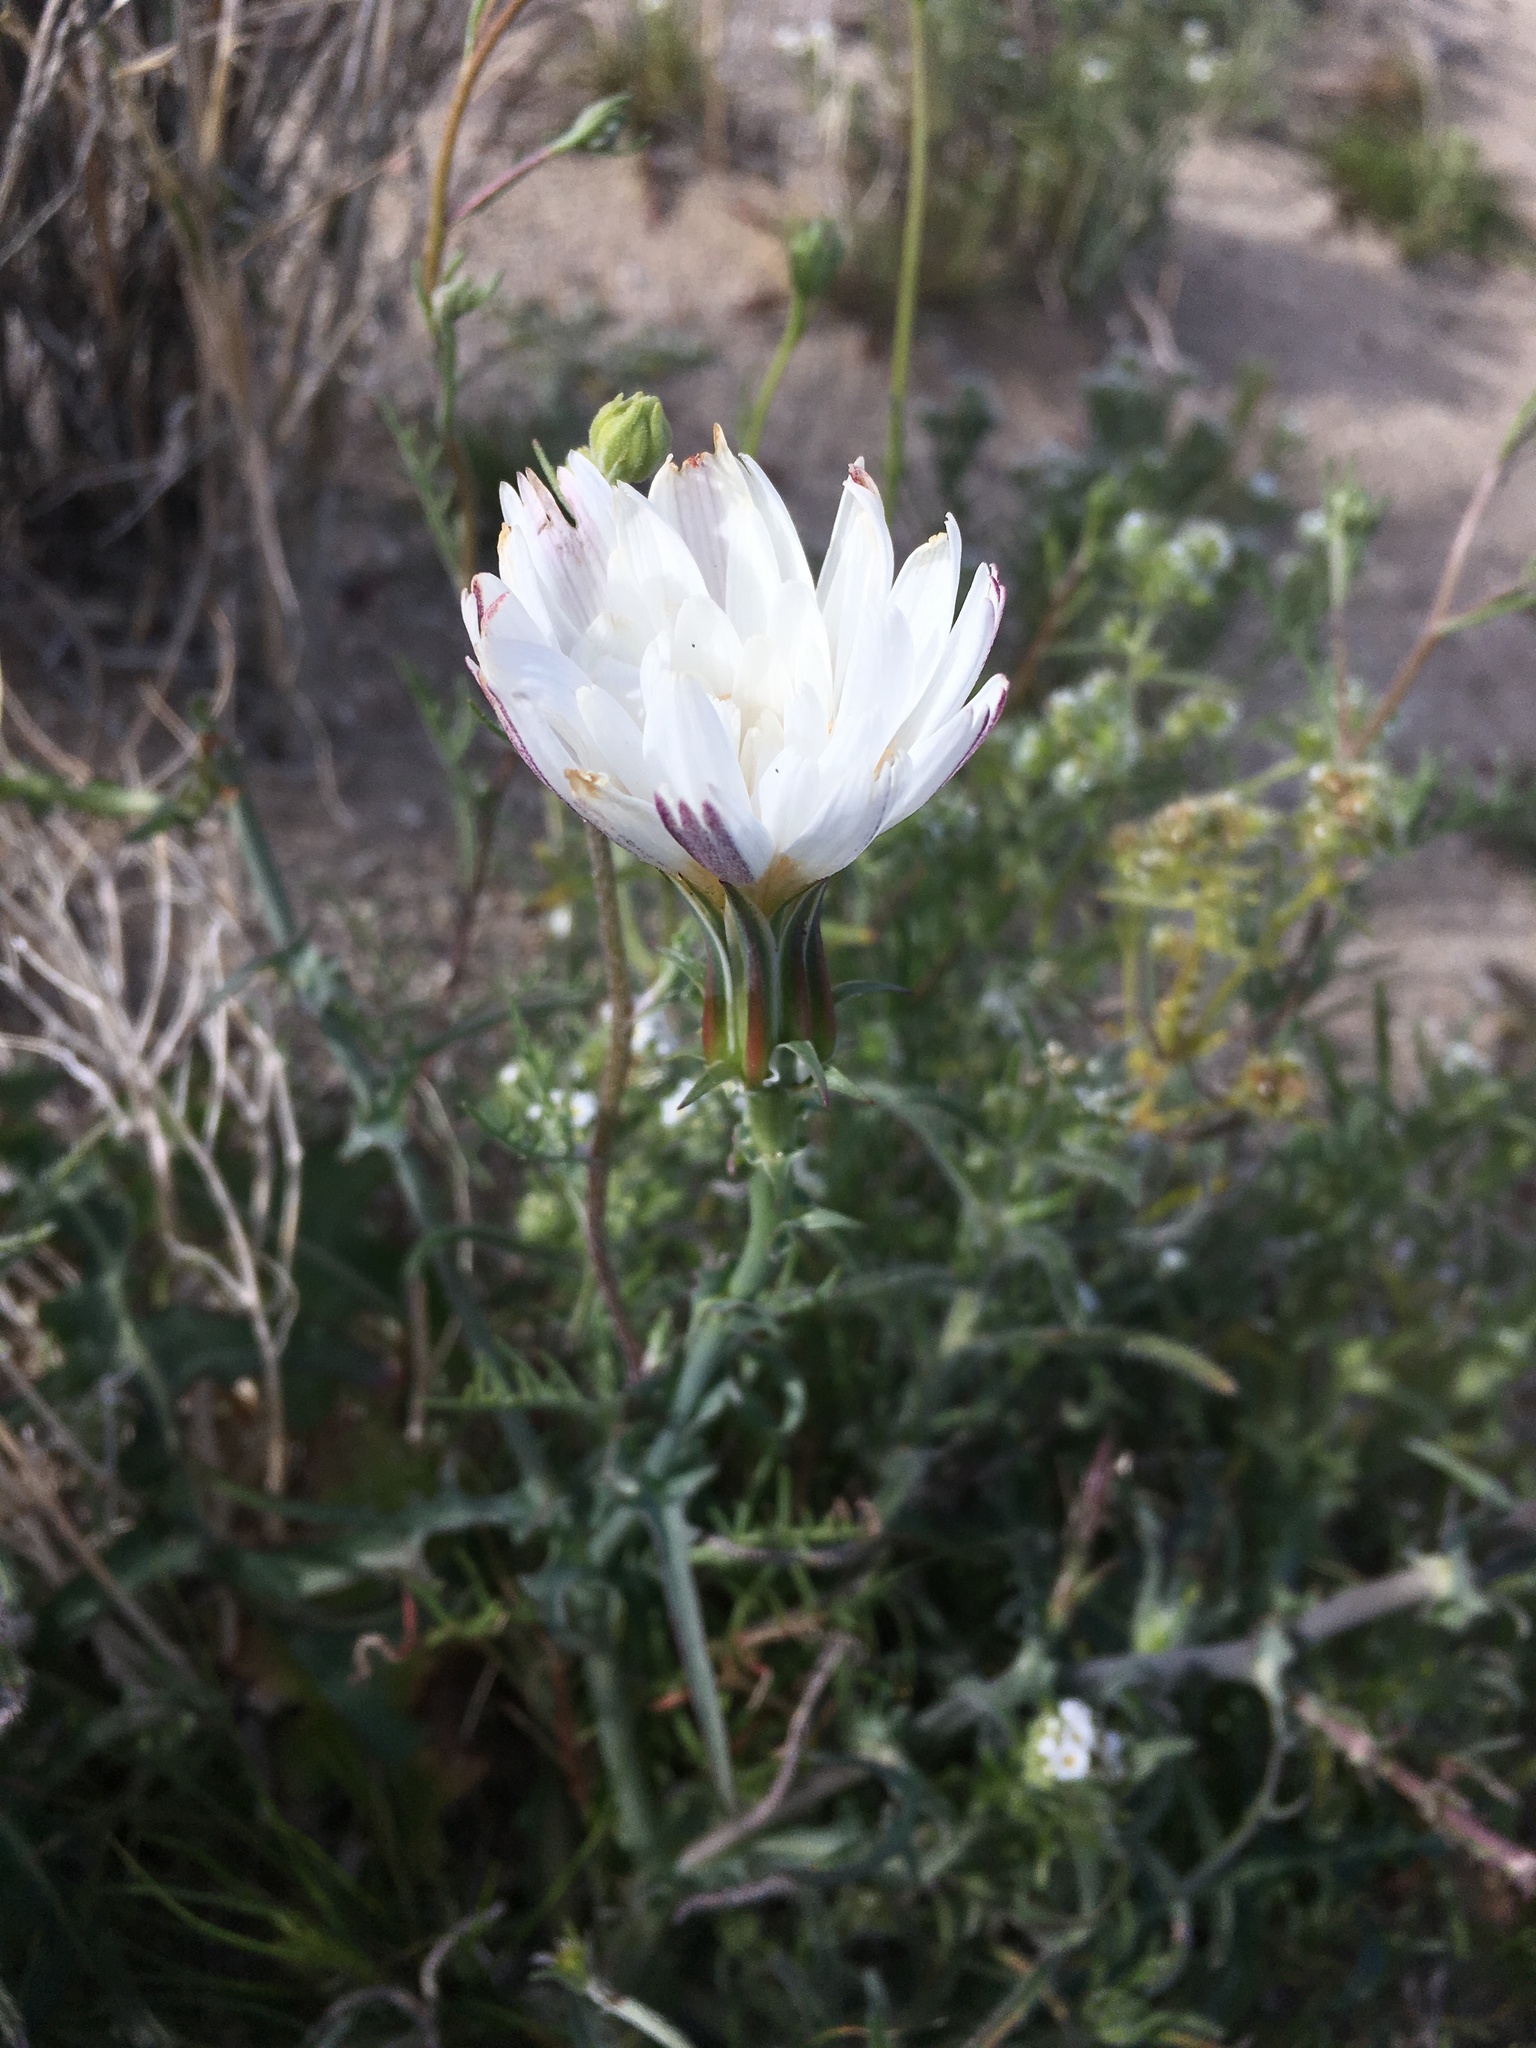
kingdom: Plantae
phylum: Tracheophyta
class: Magnoliopsida
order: Asterales
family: Asteraceae
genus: Rafinesquia
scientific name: Rafinesquia neomexicana
